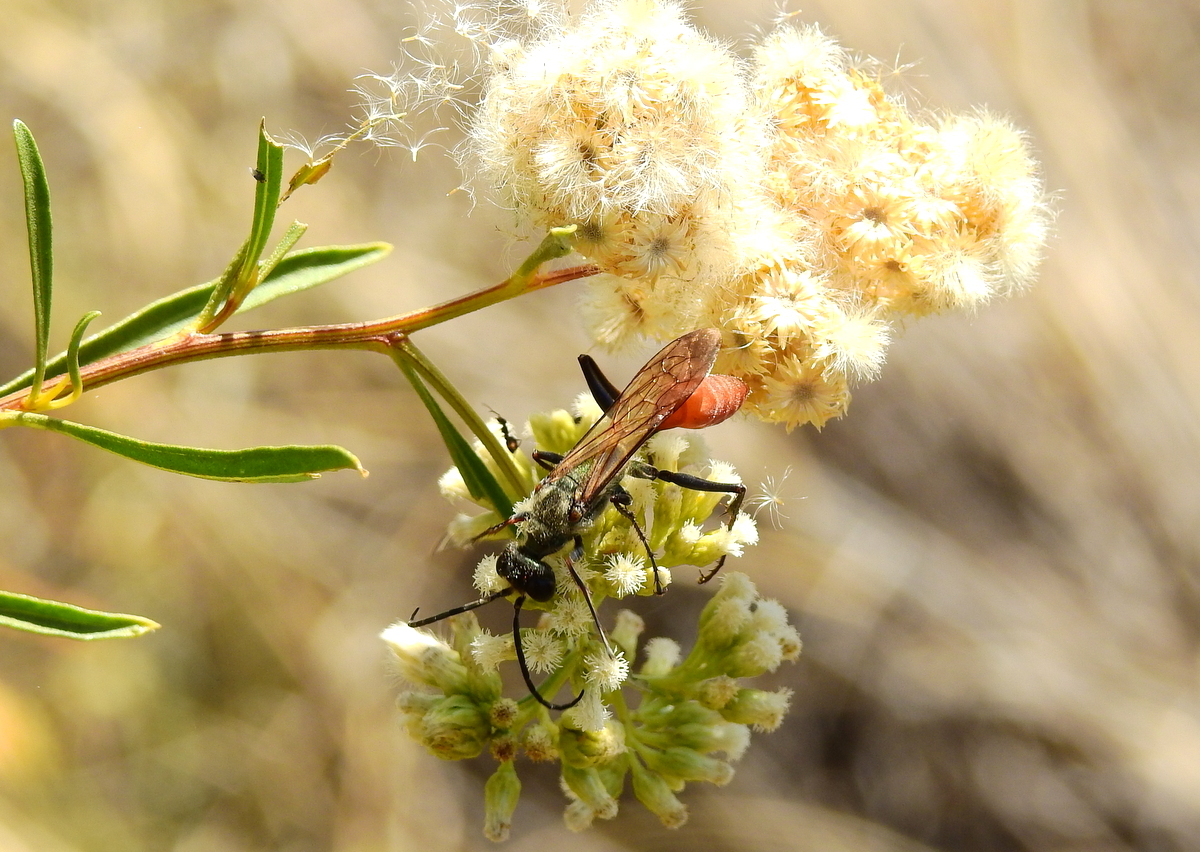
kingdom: Animalia
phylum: Arthropoda
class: Insecta
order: Hymenoptera
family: Sphecidae
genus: Chlorion
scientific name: Chlorion hemipyrrhum
